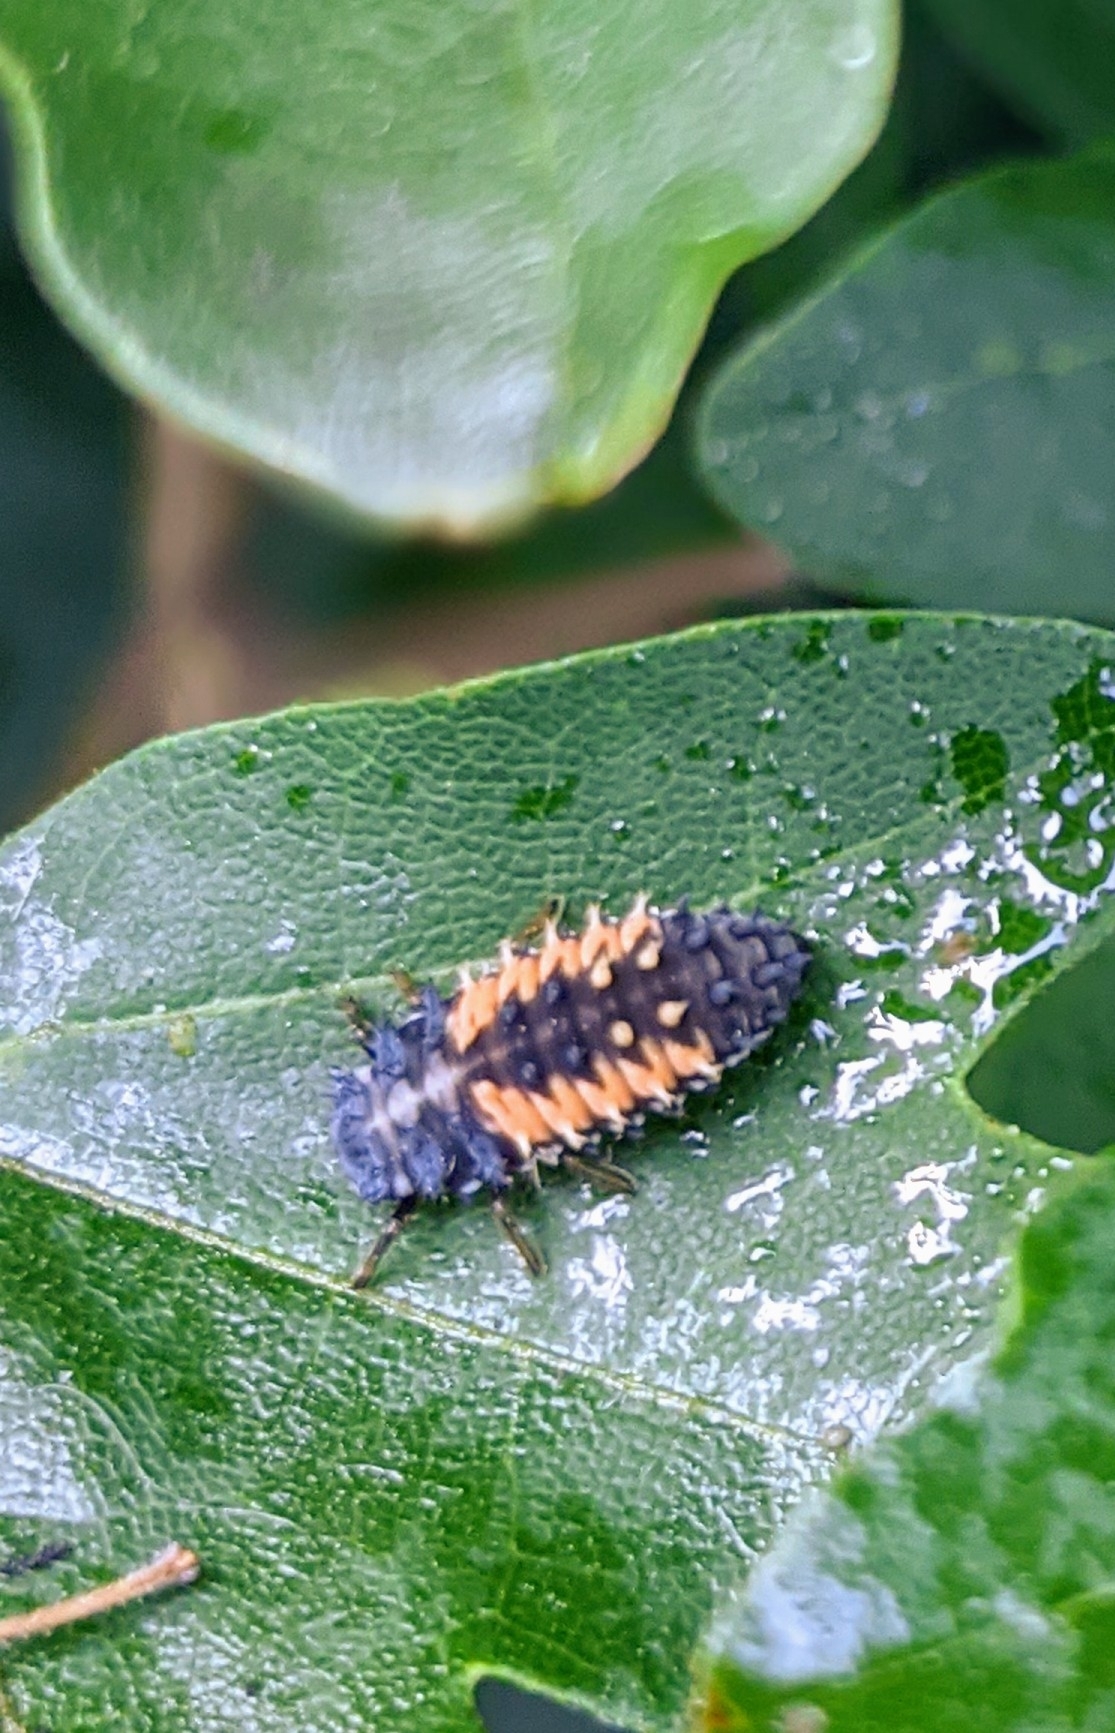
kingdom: Animalia
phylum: Arthropoda
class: Insecta
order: Coleoptera
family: Coccinellidae
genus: Harmonia
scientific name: Harmonia axyridis
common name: Harlequin ladybird
